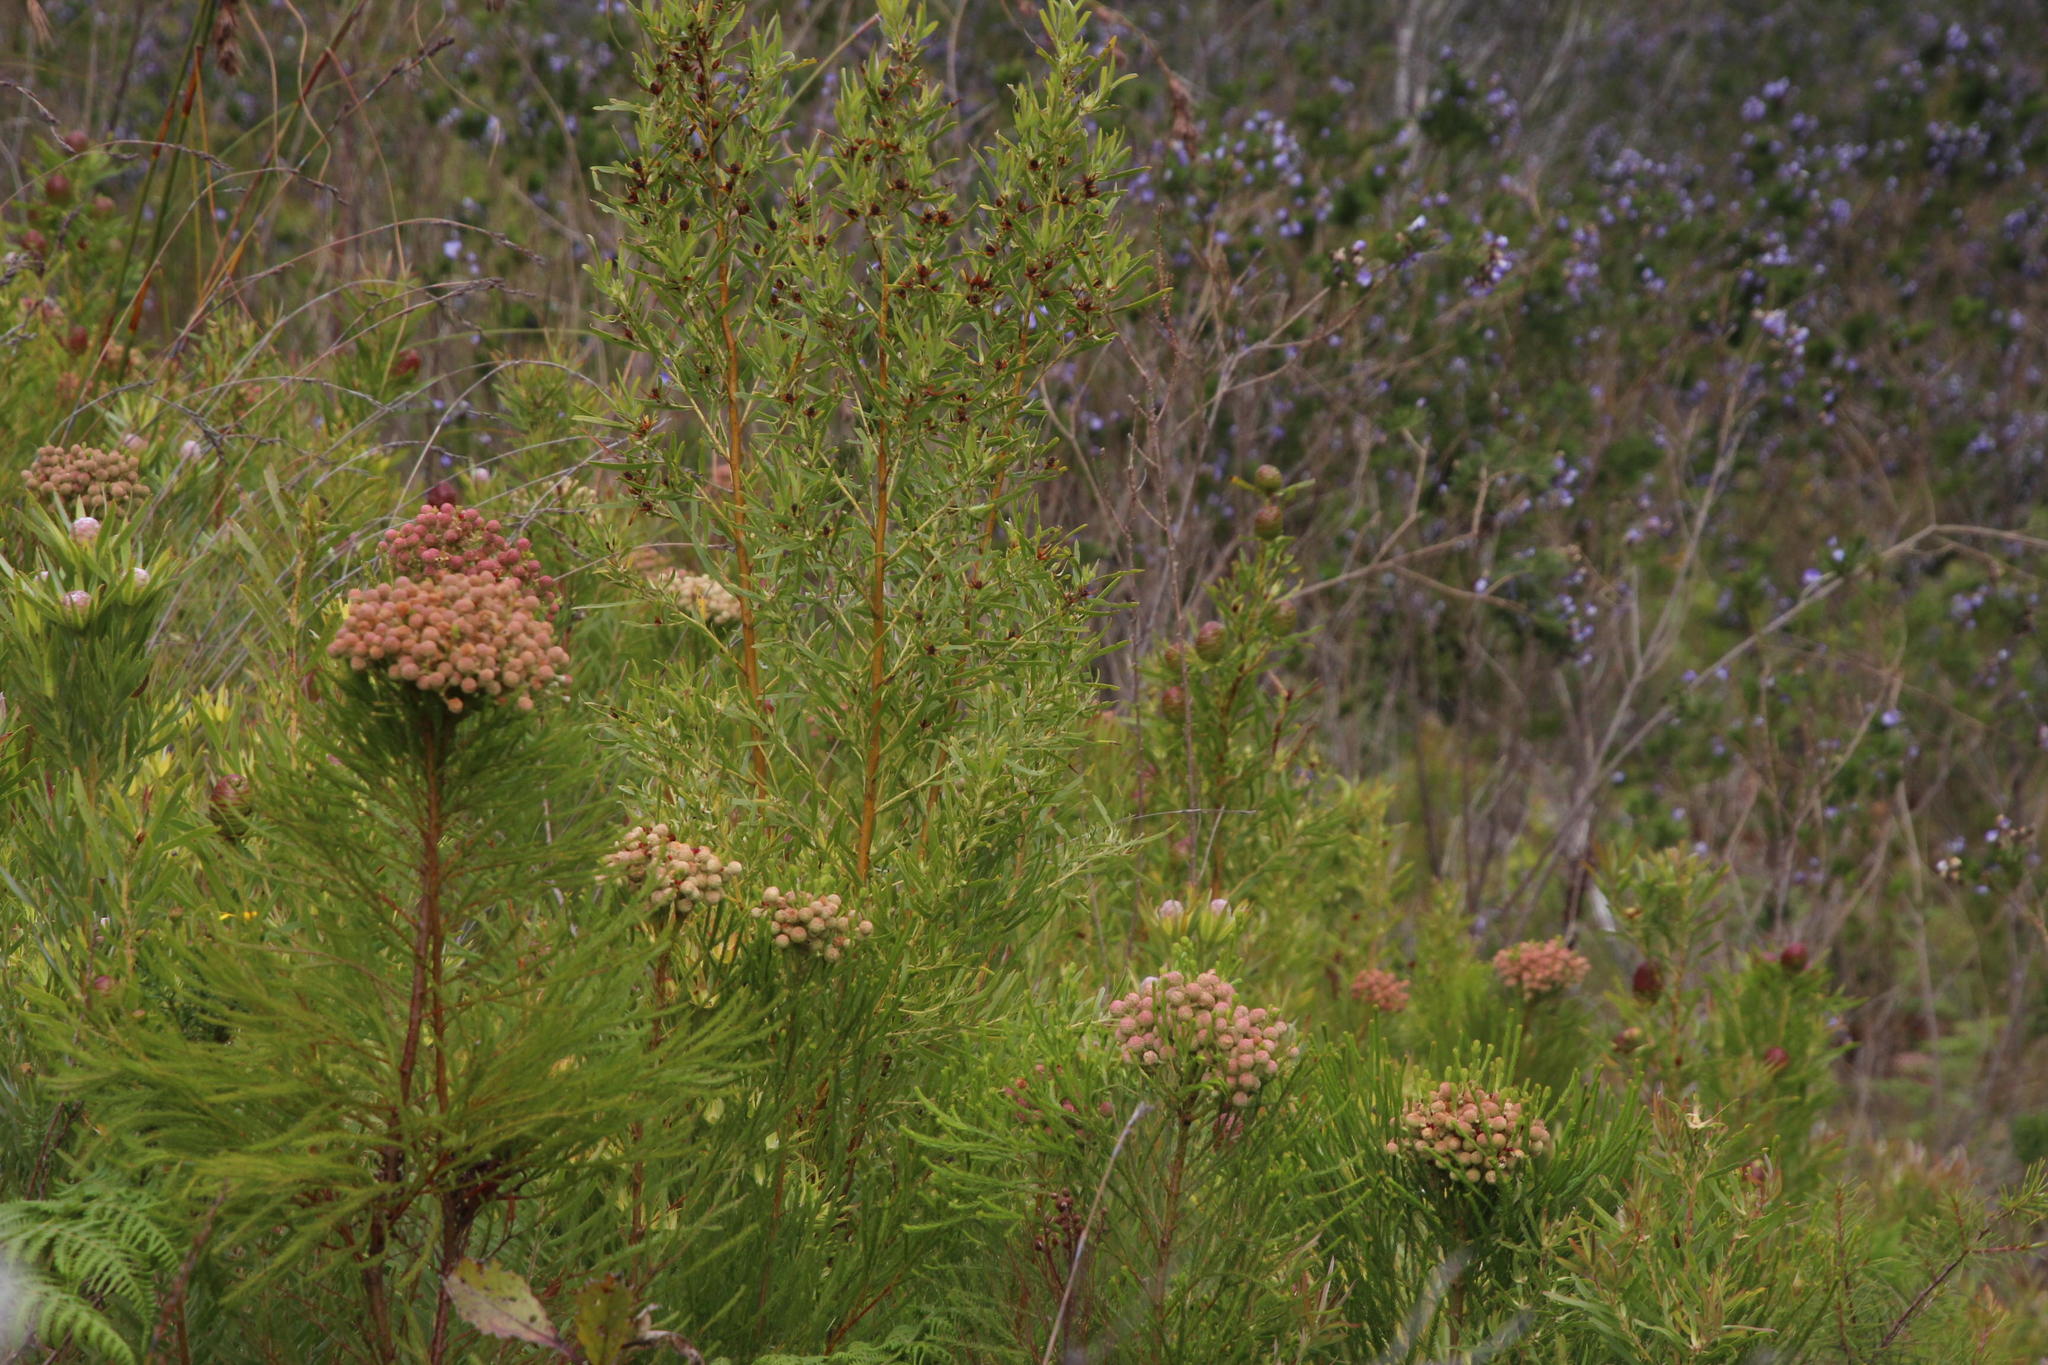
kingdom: Plantae
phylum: Tracheophyta
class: Magnoliopsida
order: Proteales
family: Proteaceae
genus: Leucadendron
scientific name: Leucadendron salicifolium
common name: Common stream conebush
